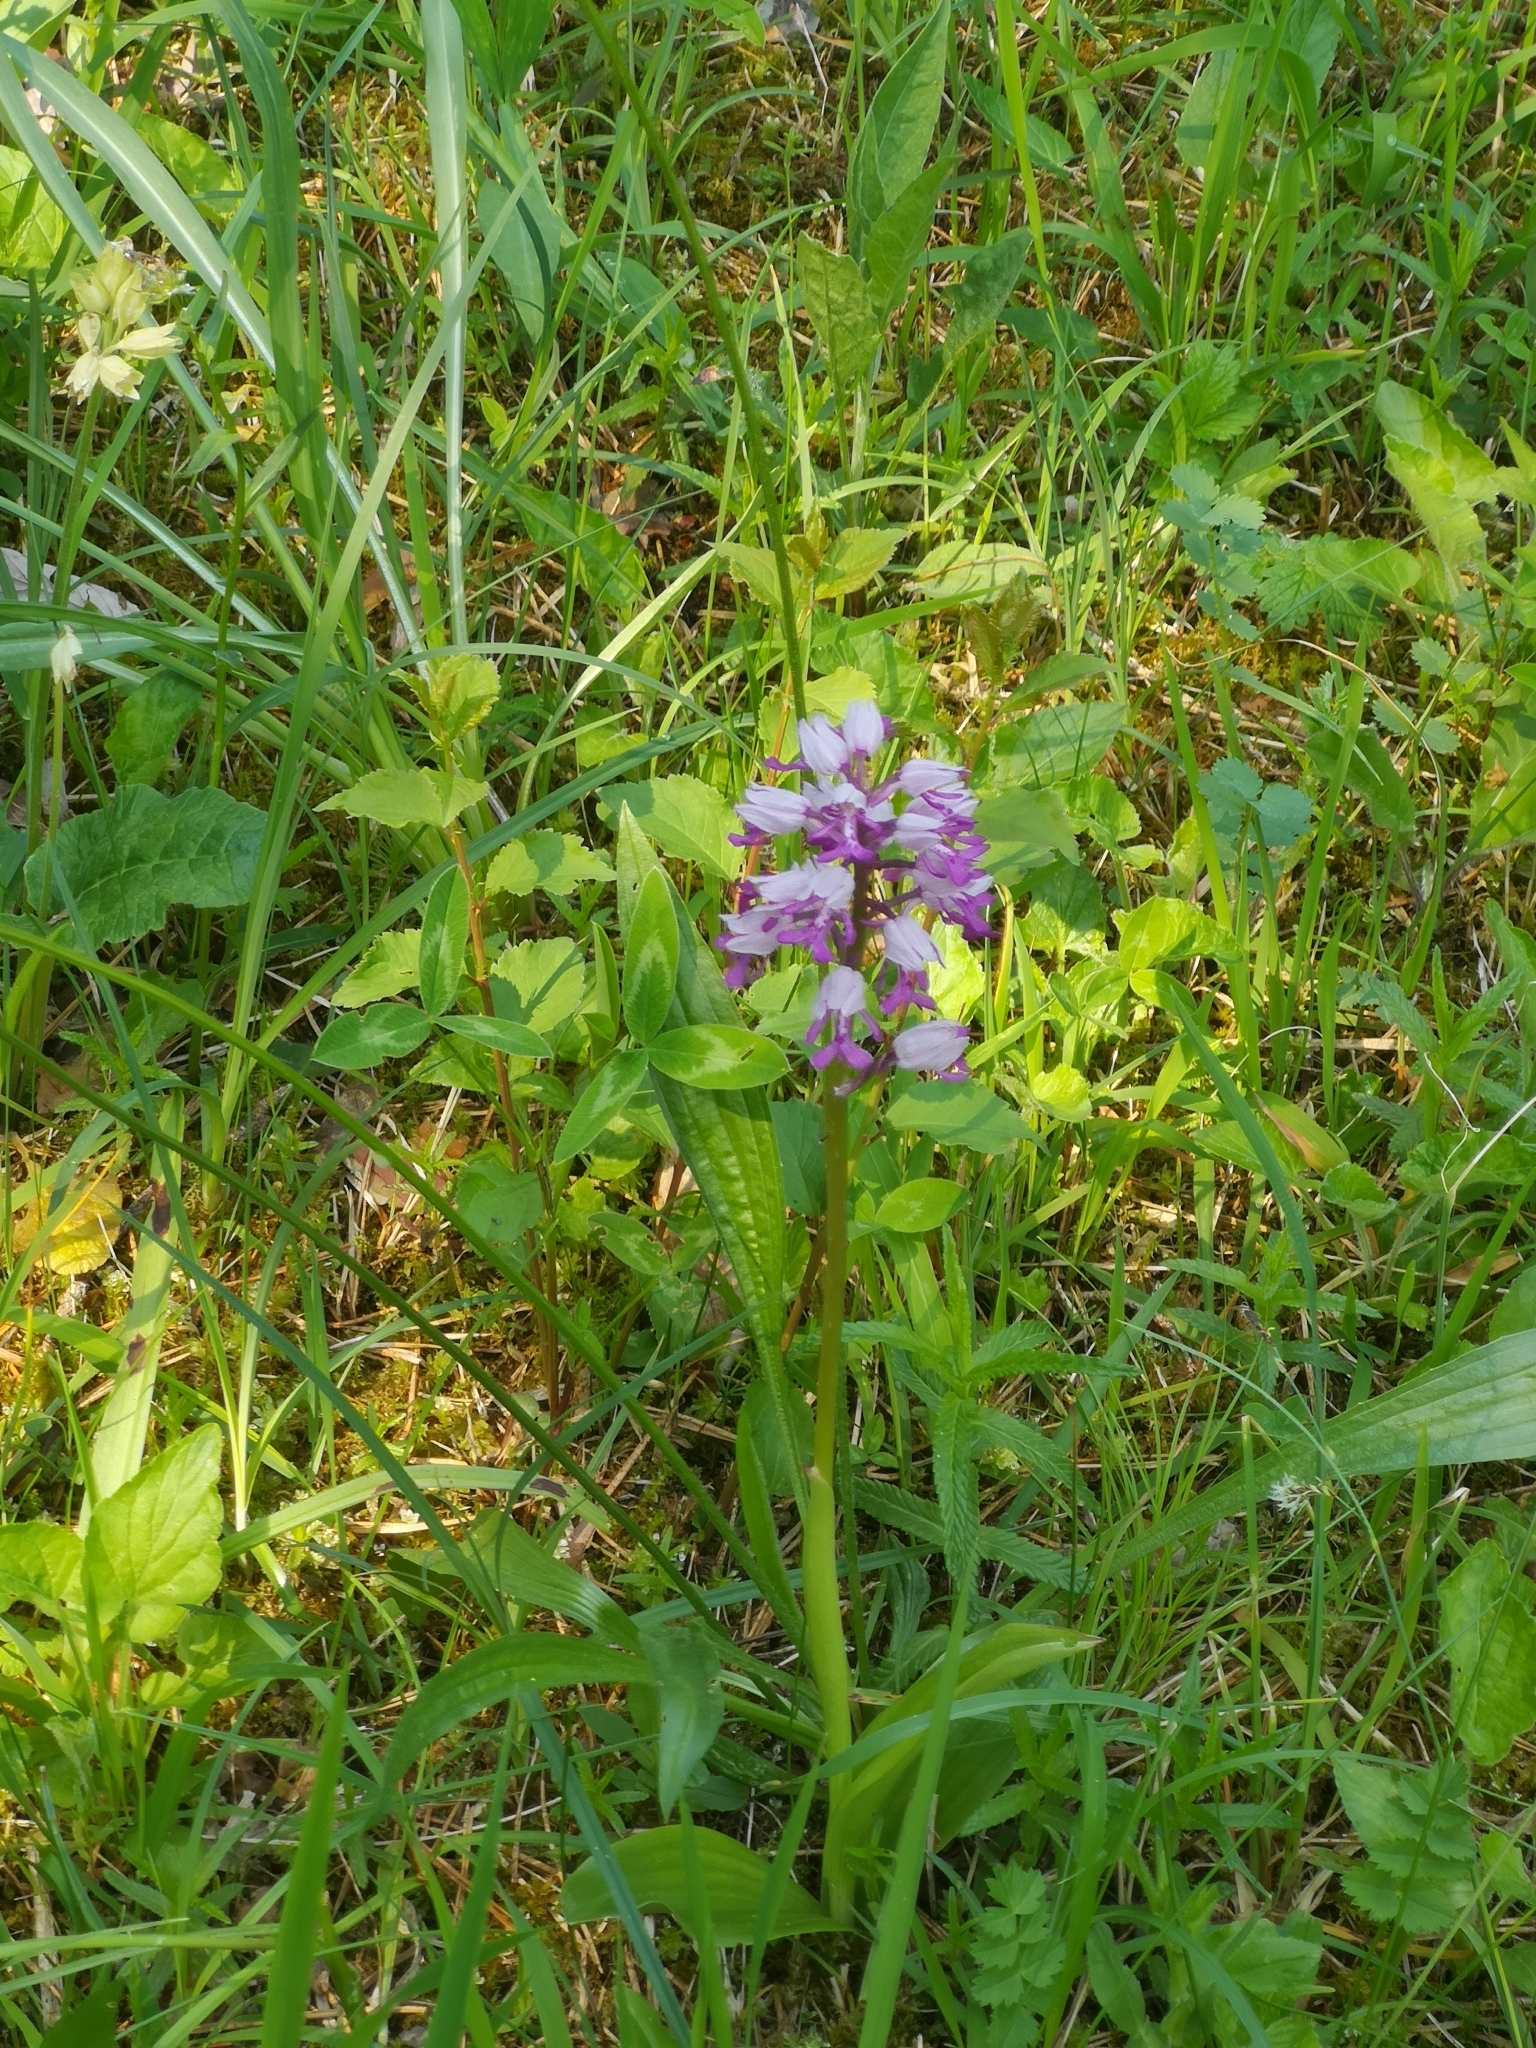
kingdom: Plantae
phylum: Tracheophyta
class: Liliopsida
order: Asparagales
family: Orchidaceae
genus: Orchis
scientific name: Orchis militaris
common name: Military orchid
